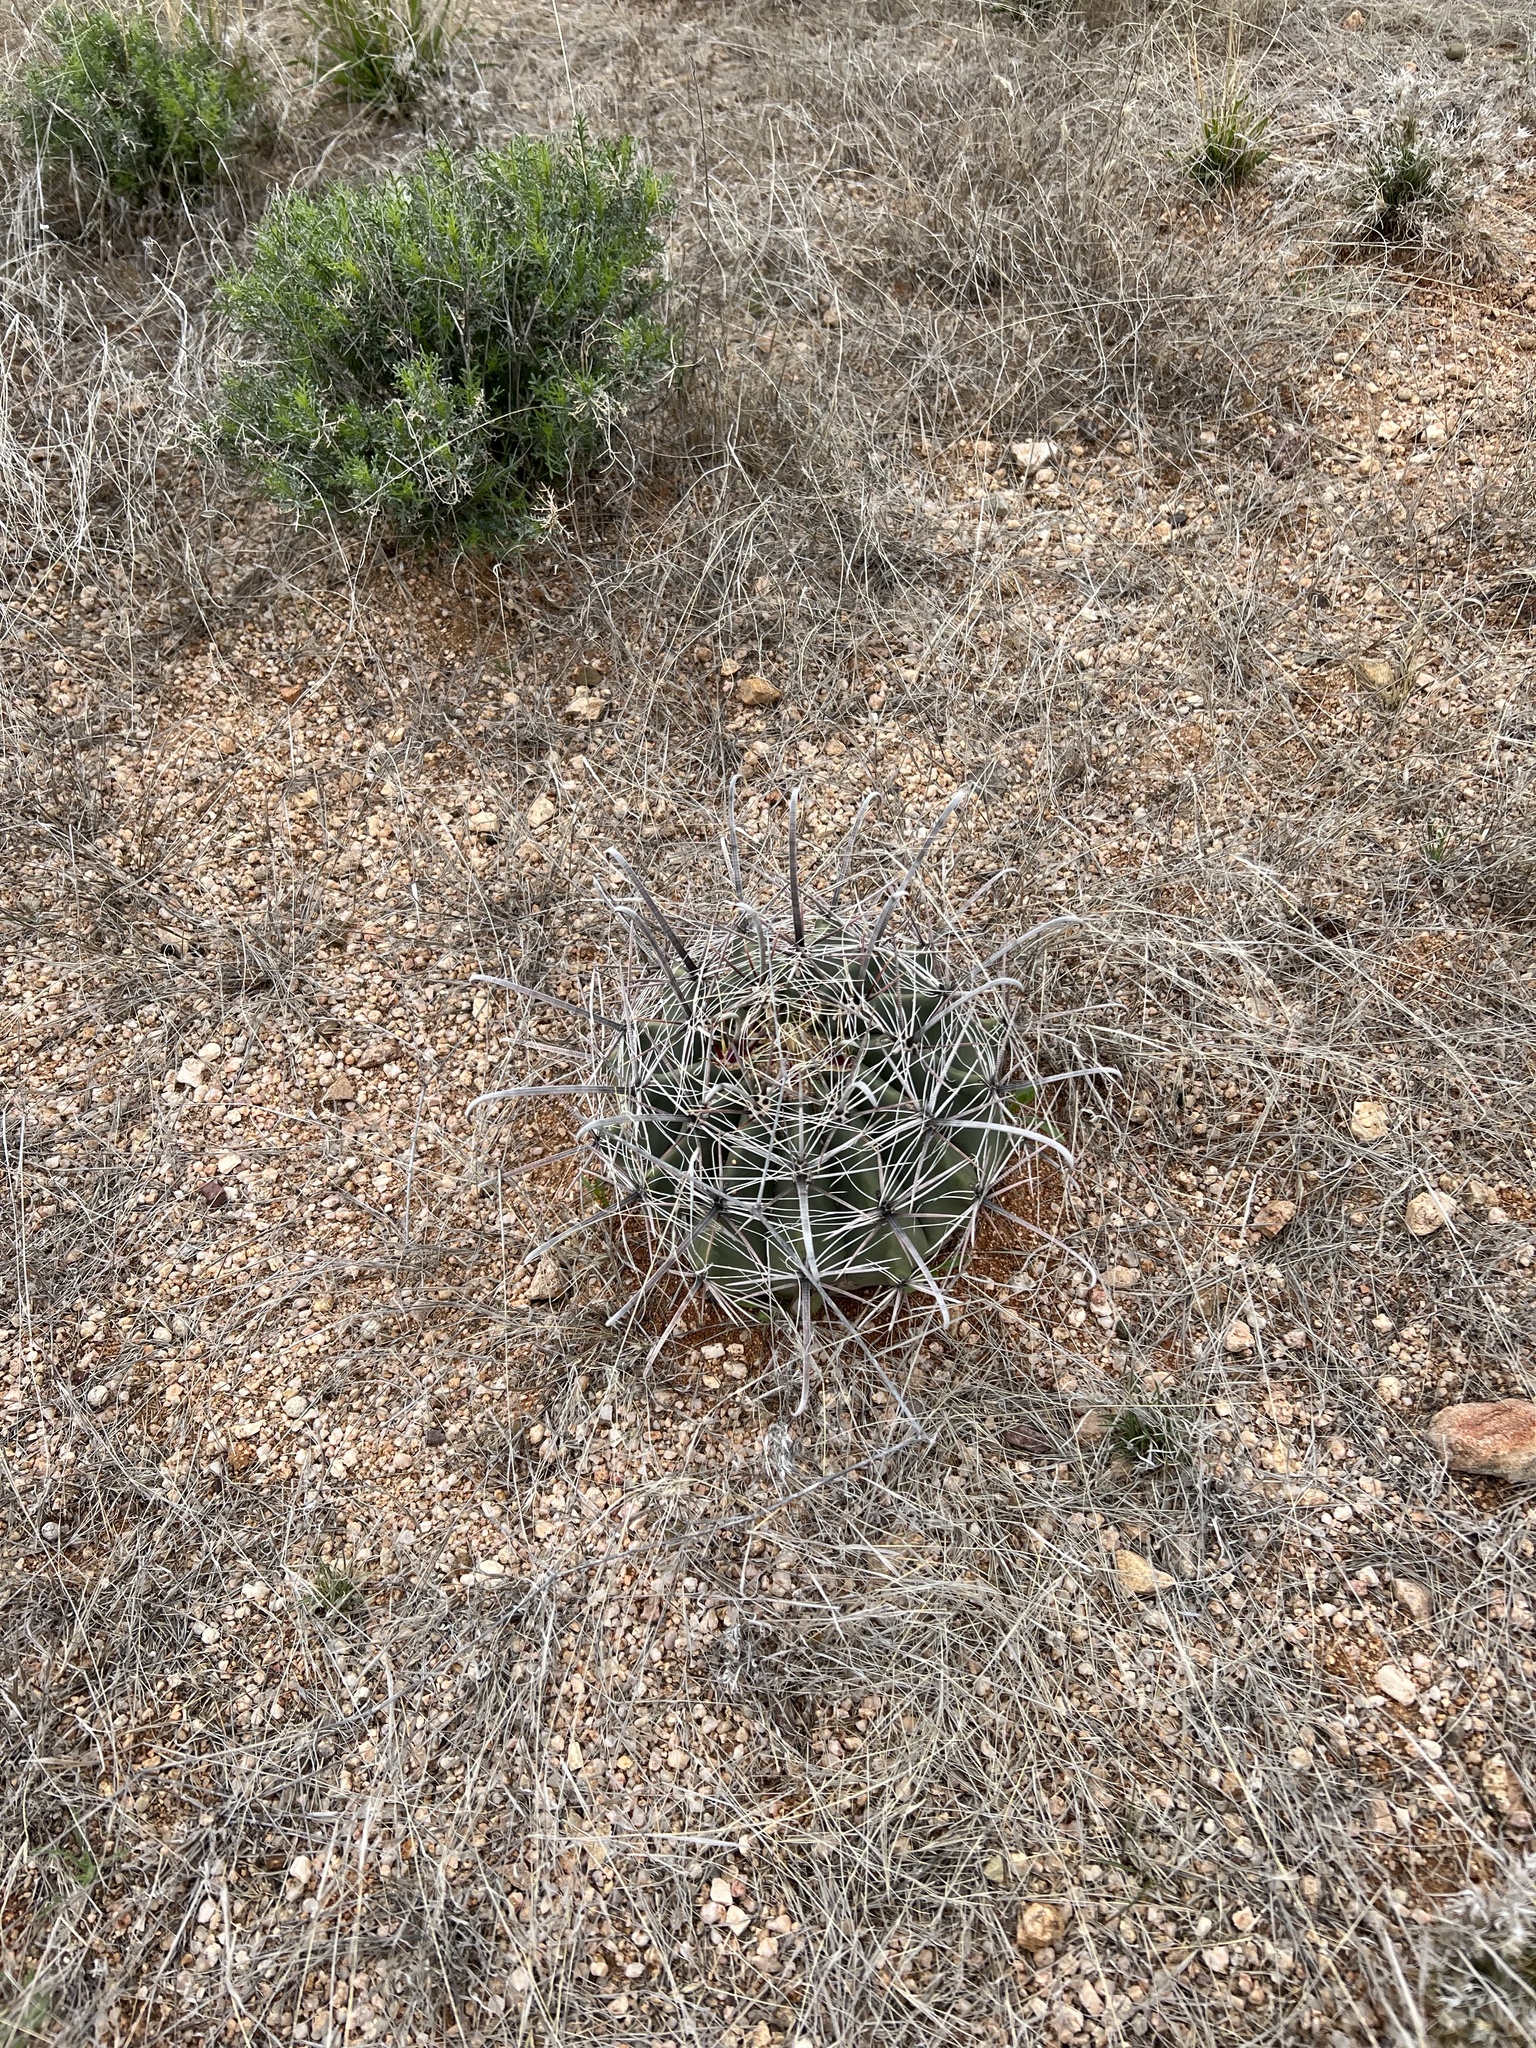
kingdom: Plantae
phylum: Tracheophyta
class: Magnoliopsida
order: Caryophyllales
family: Cactaceae
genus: Ferocactus
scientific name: Ferocactus wislizeni
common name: Candy barrel cactus
